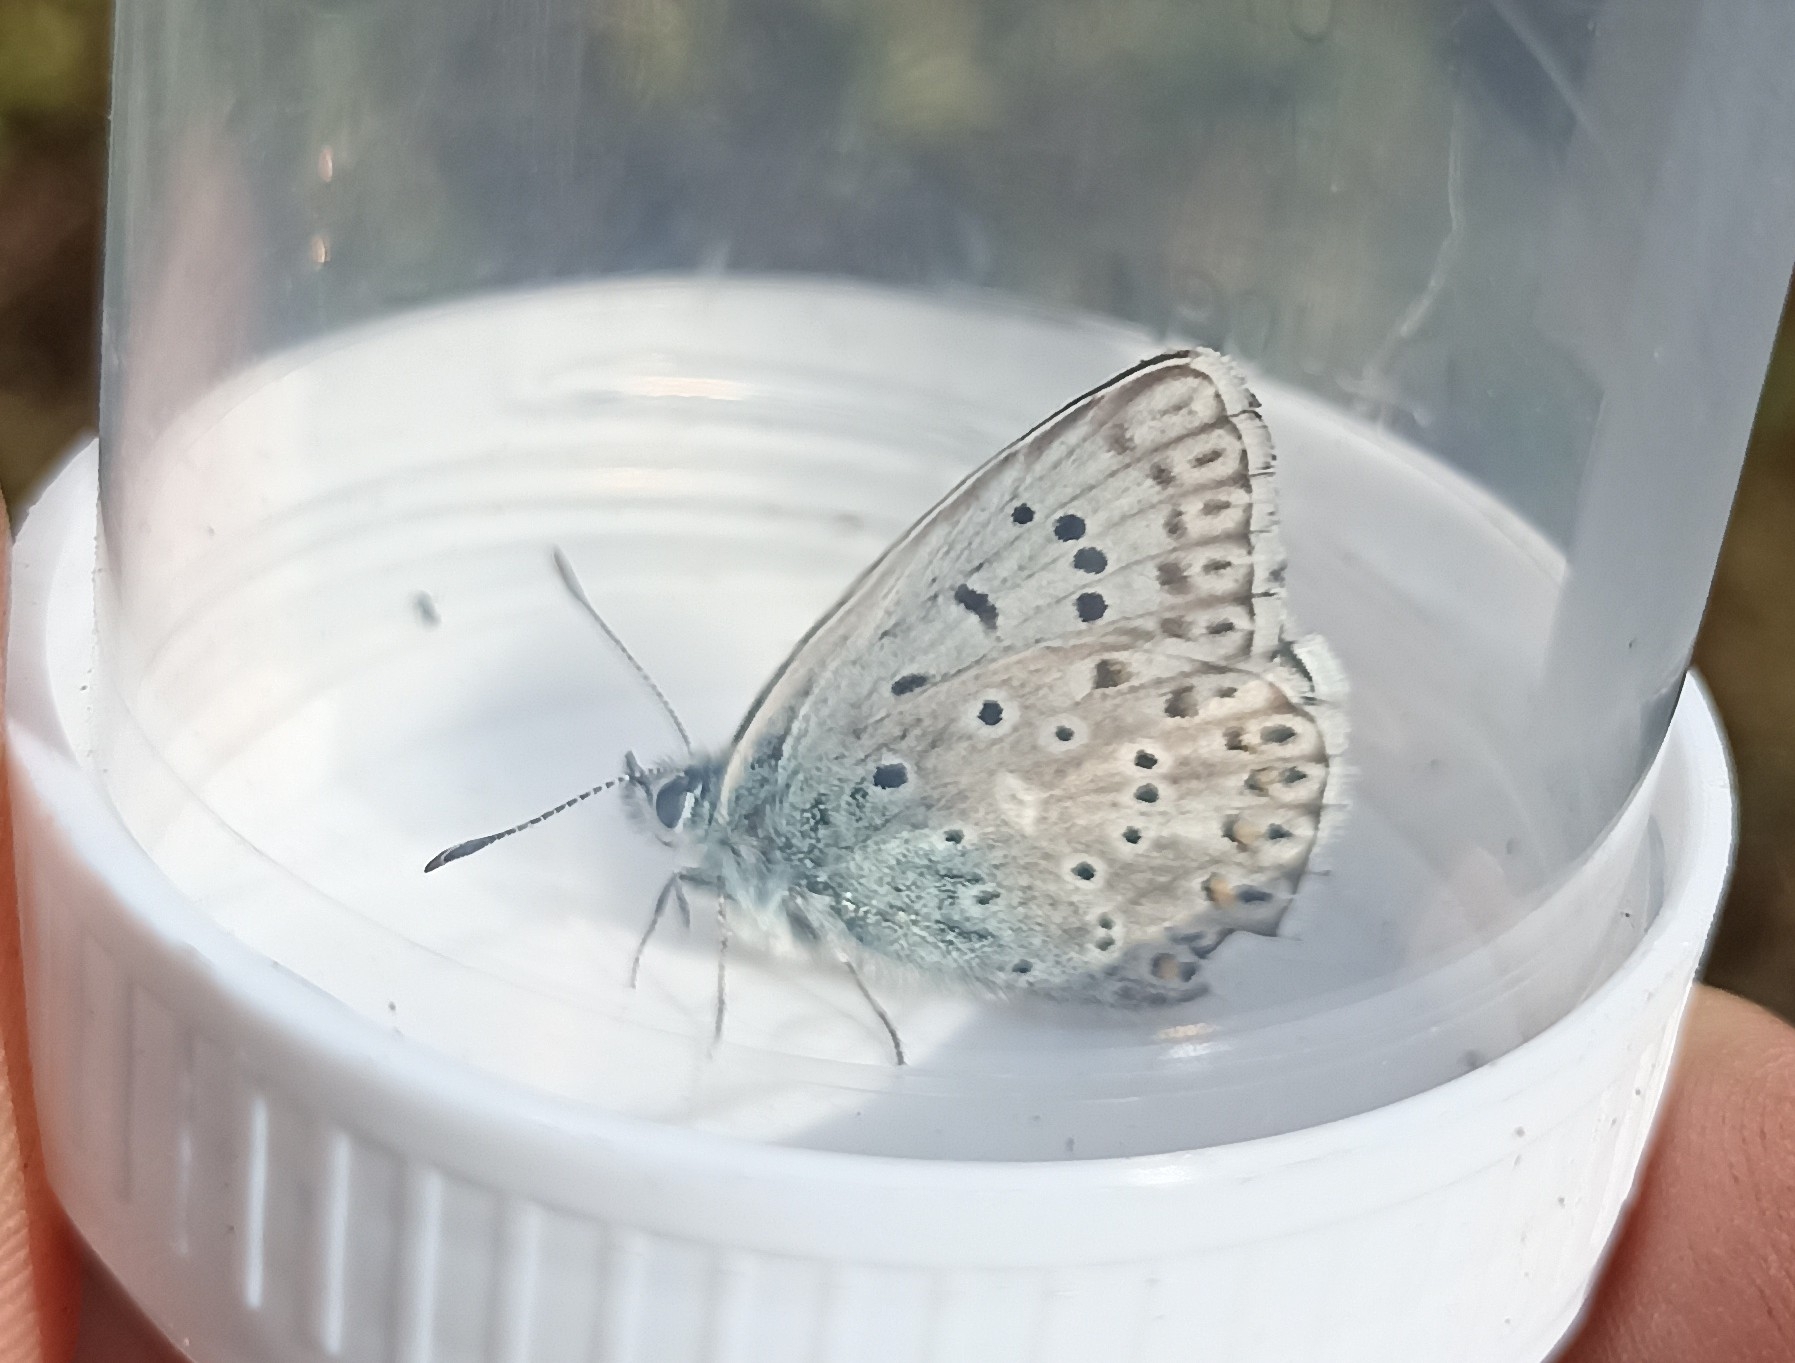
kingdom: Animalia
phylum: Arthropoda
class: Insecta
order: Lepidoptera
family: Lycaenidae
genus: Lysandra
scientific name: Lysandra hispana
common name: Provence chalkhill blue
